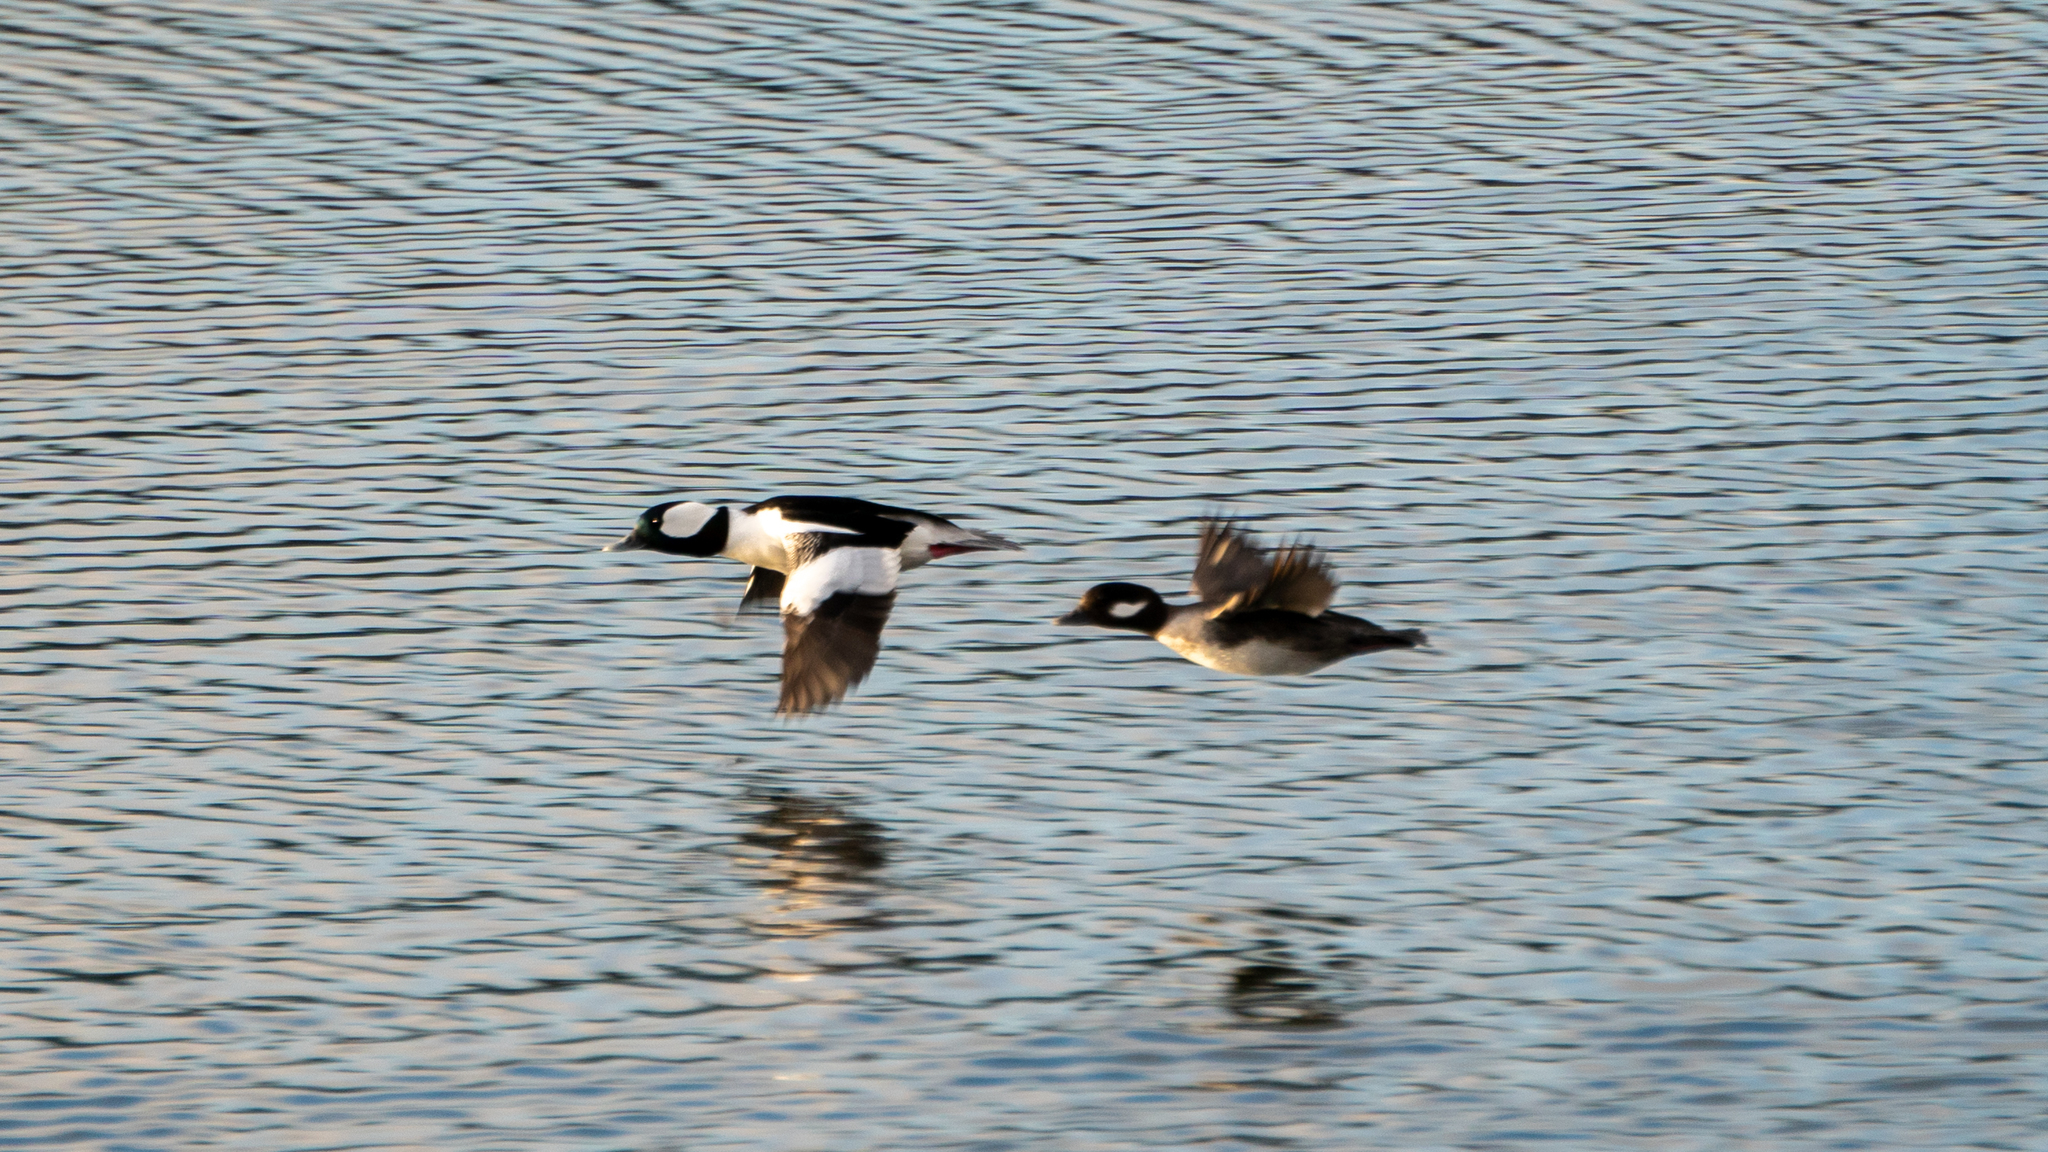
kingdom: Animalia
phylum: Chordata
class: Aves
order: Anseriformes
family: Anatidae
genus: Bucephala
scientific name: Bucephala albeola
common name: Bufflehead
